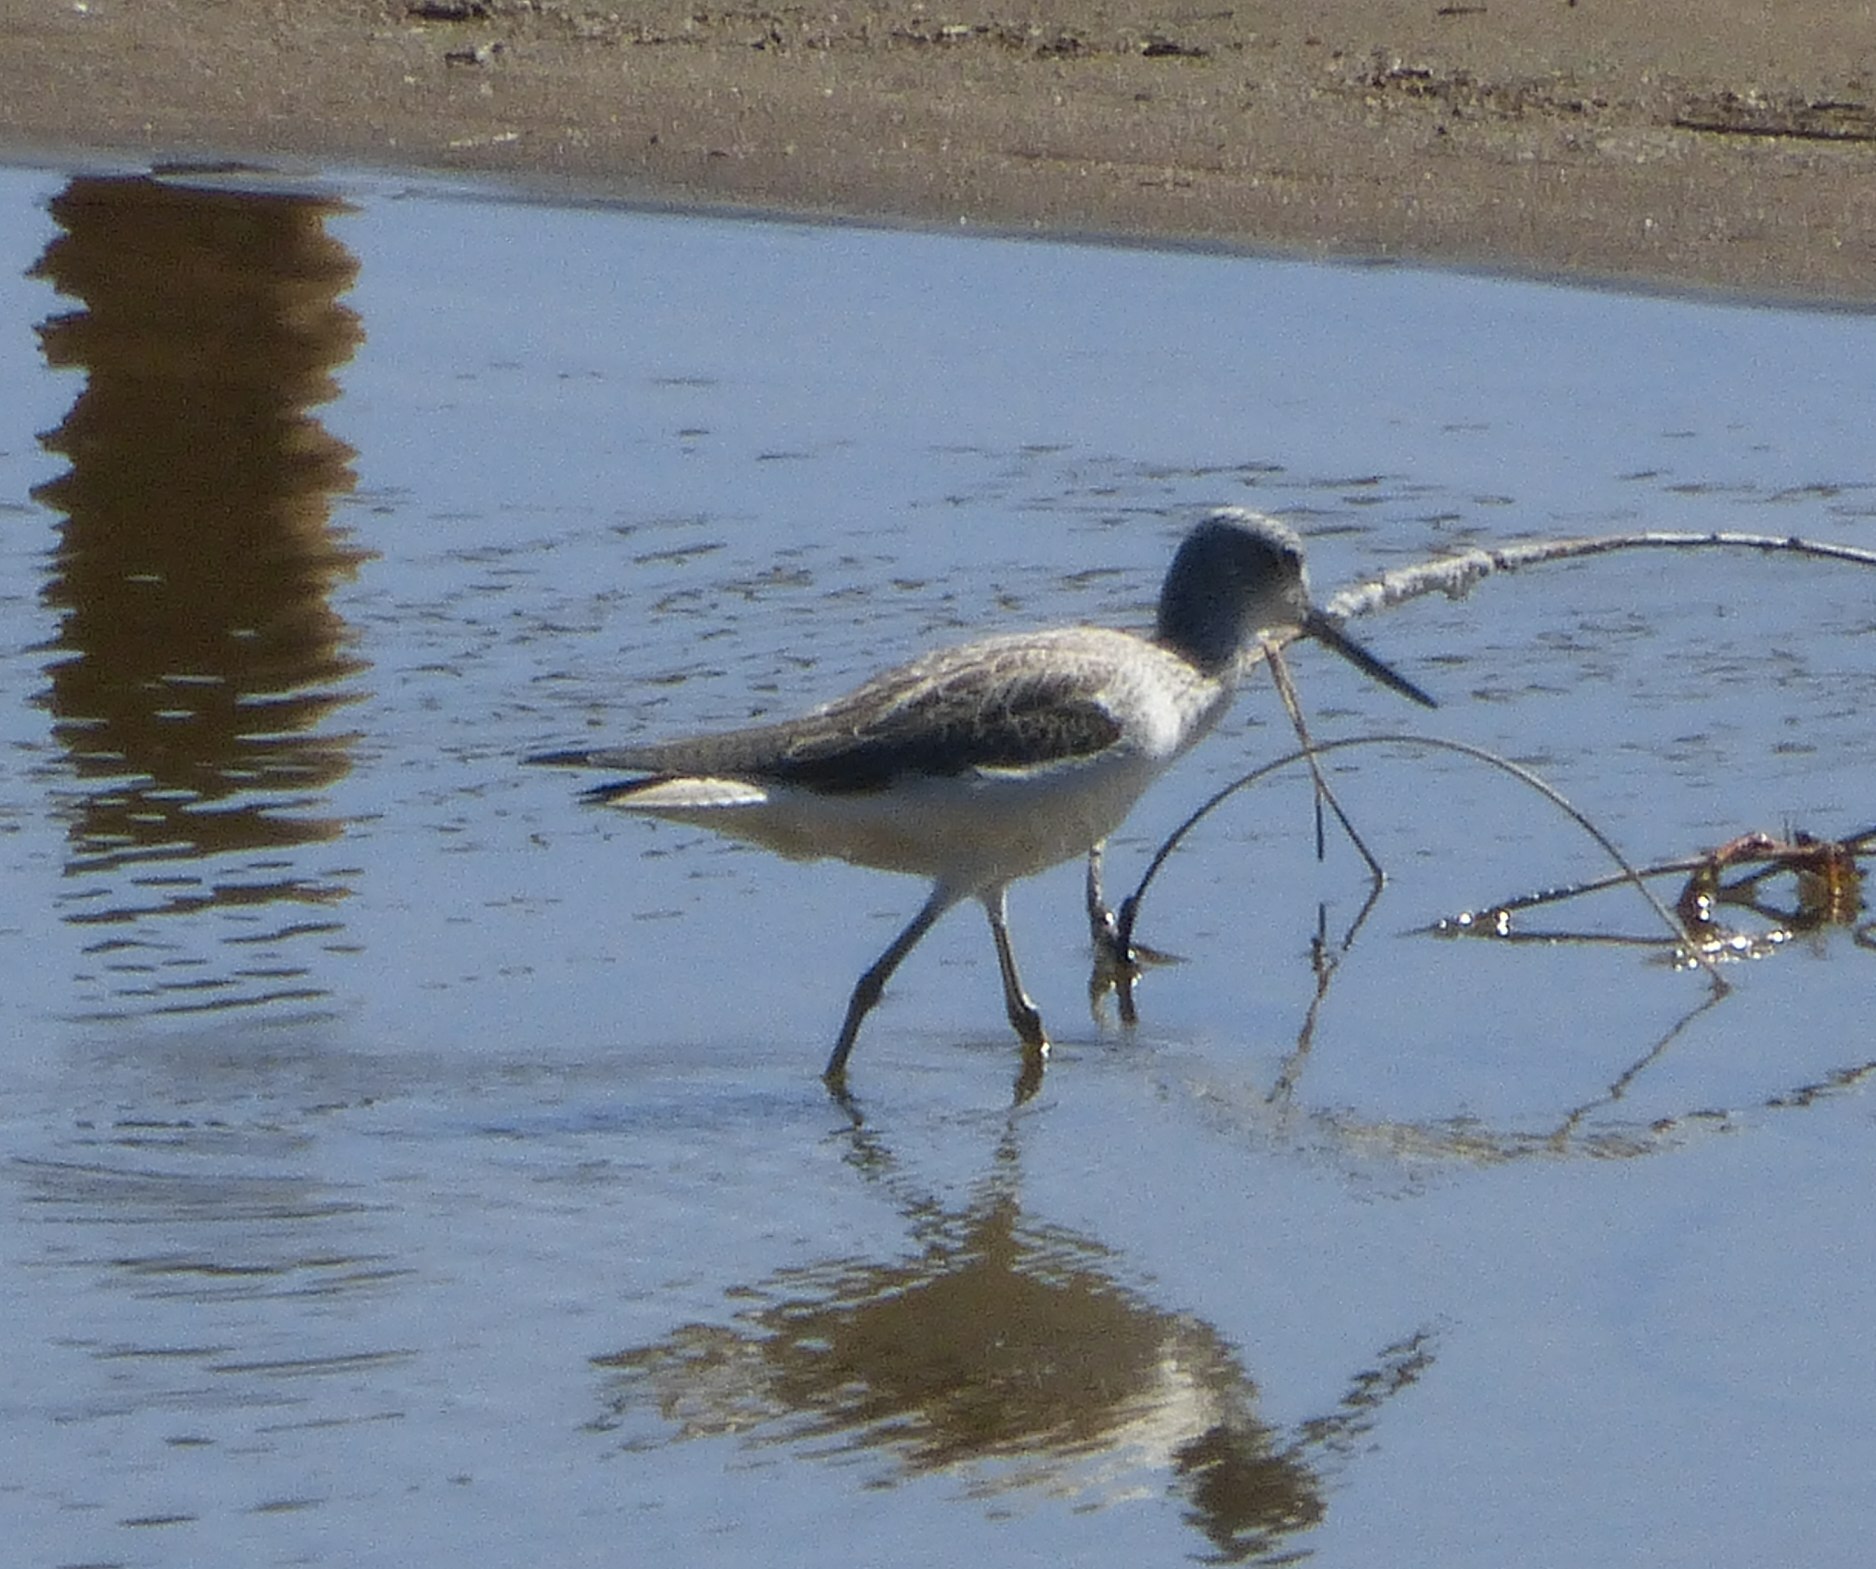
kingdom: Animalia
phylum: Chordata
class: Aves
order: Charadriiformes
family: Scolopacidae
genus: Tringa
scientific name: Tringa nebularia
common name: Common greenshank
